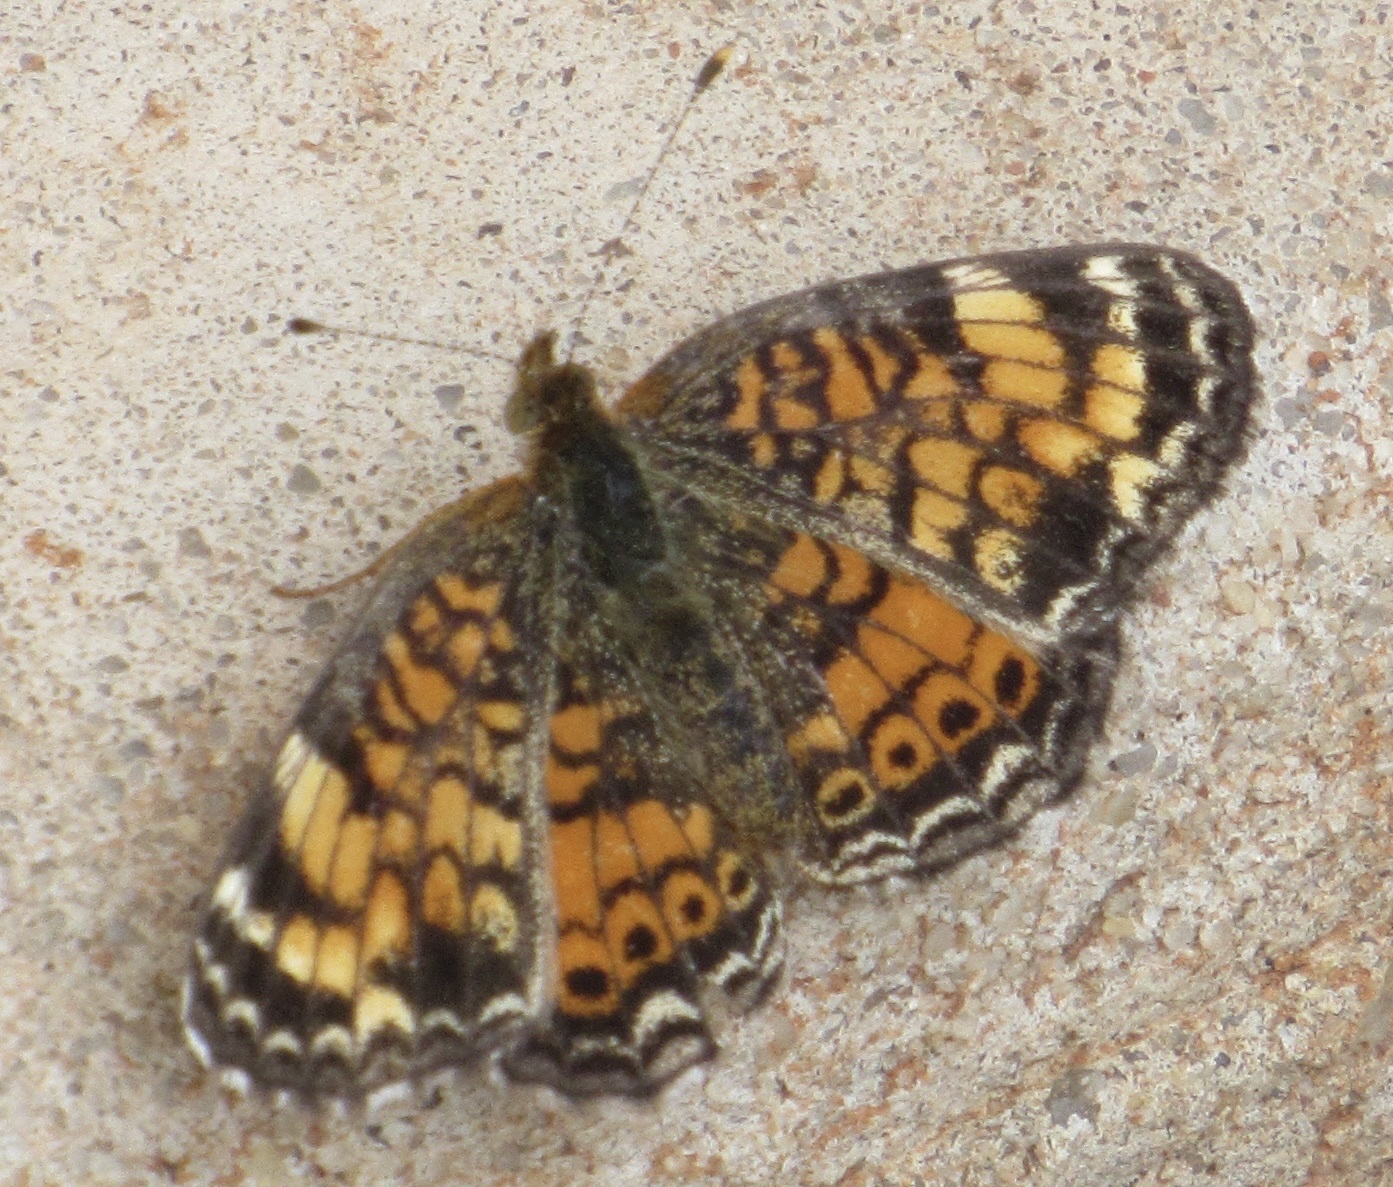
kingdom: Animalia
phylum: Arthropoda
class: Insecta
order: Lepidoptera
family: Nymphalidae
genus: Phyciodes
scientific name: Phyciodes tharos
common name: Pearl crescent
